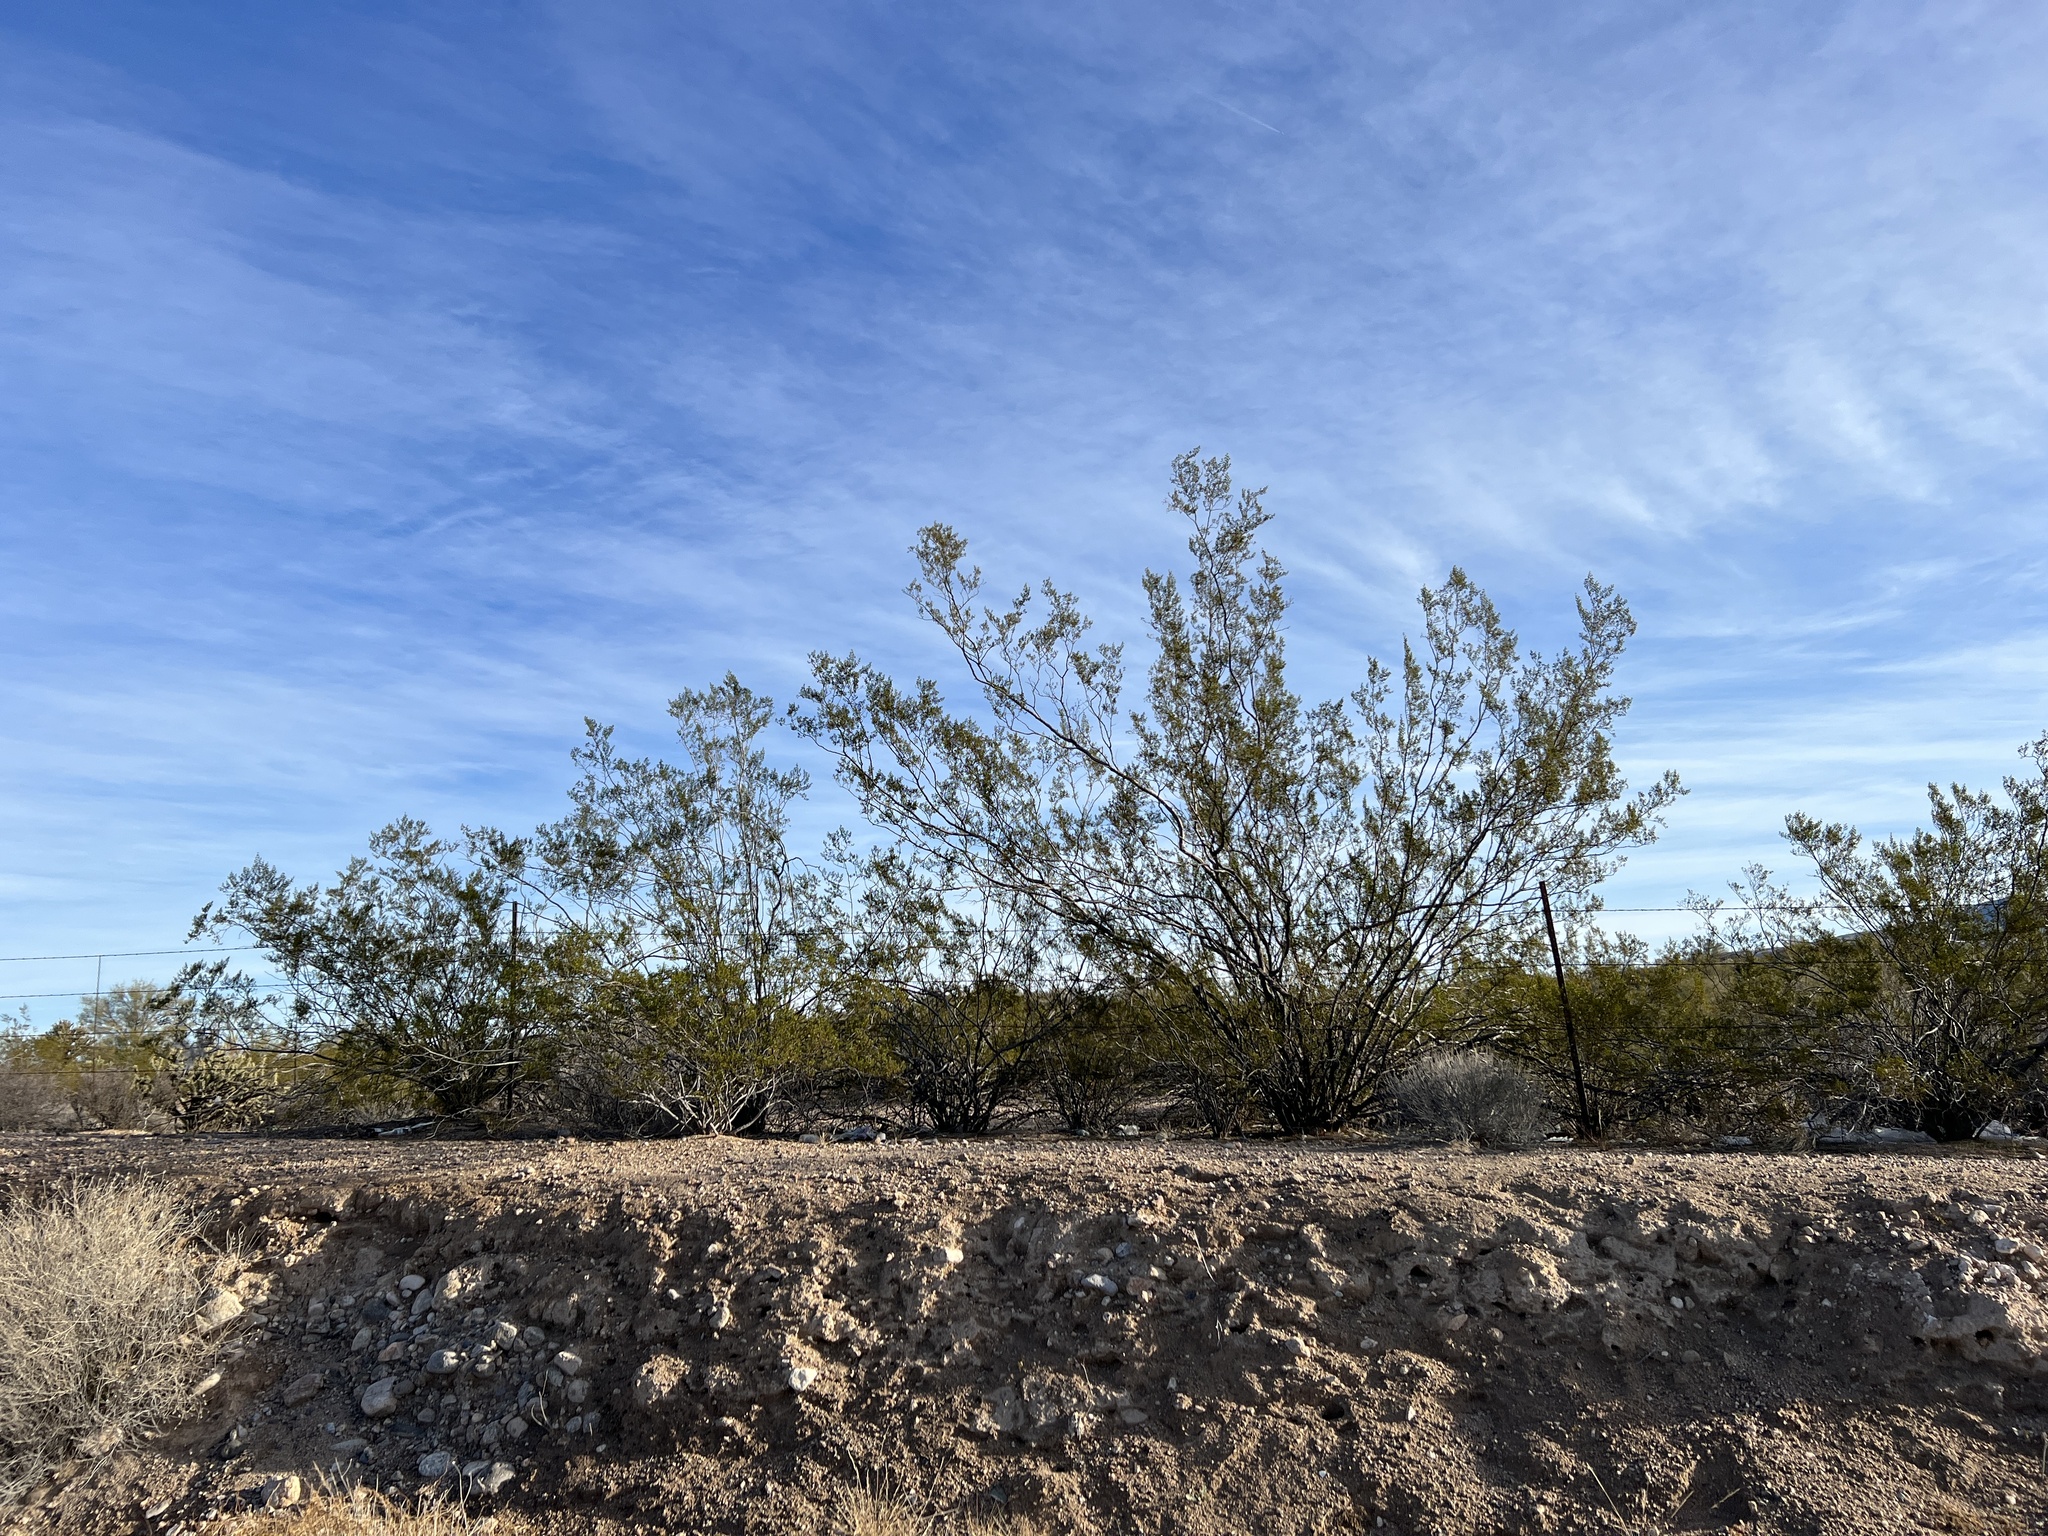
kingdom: Plantae
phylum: Tracheophyta
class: Magnoliopsida
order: Zygophyllales
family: Zygophyllaceae
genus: Larrea
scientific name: Larrea tridentata
